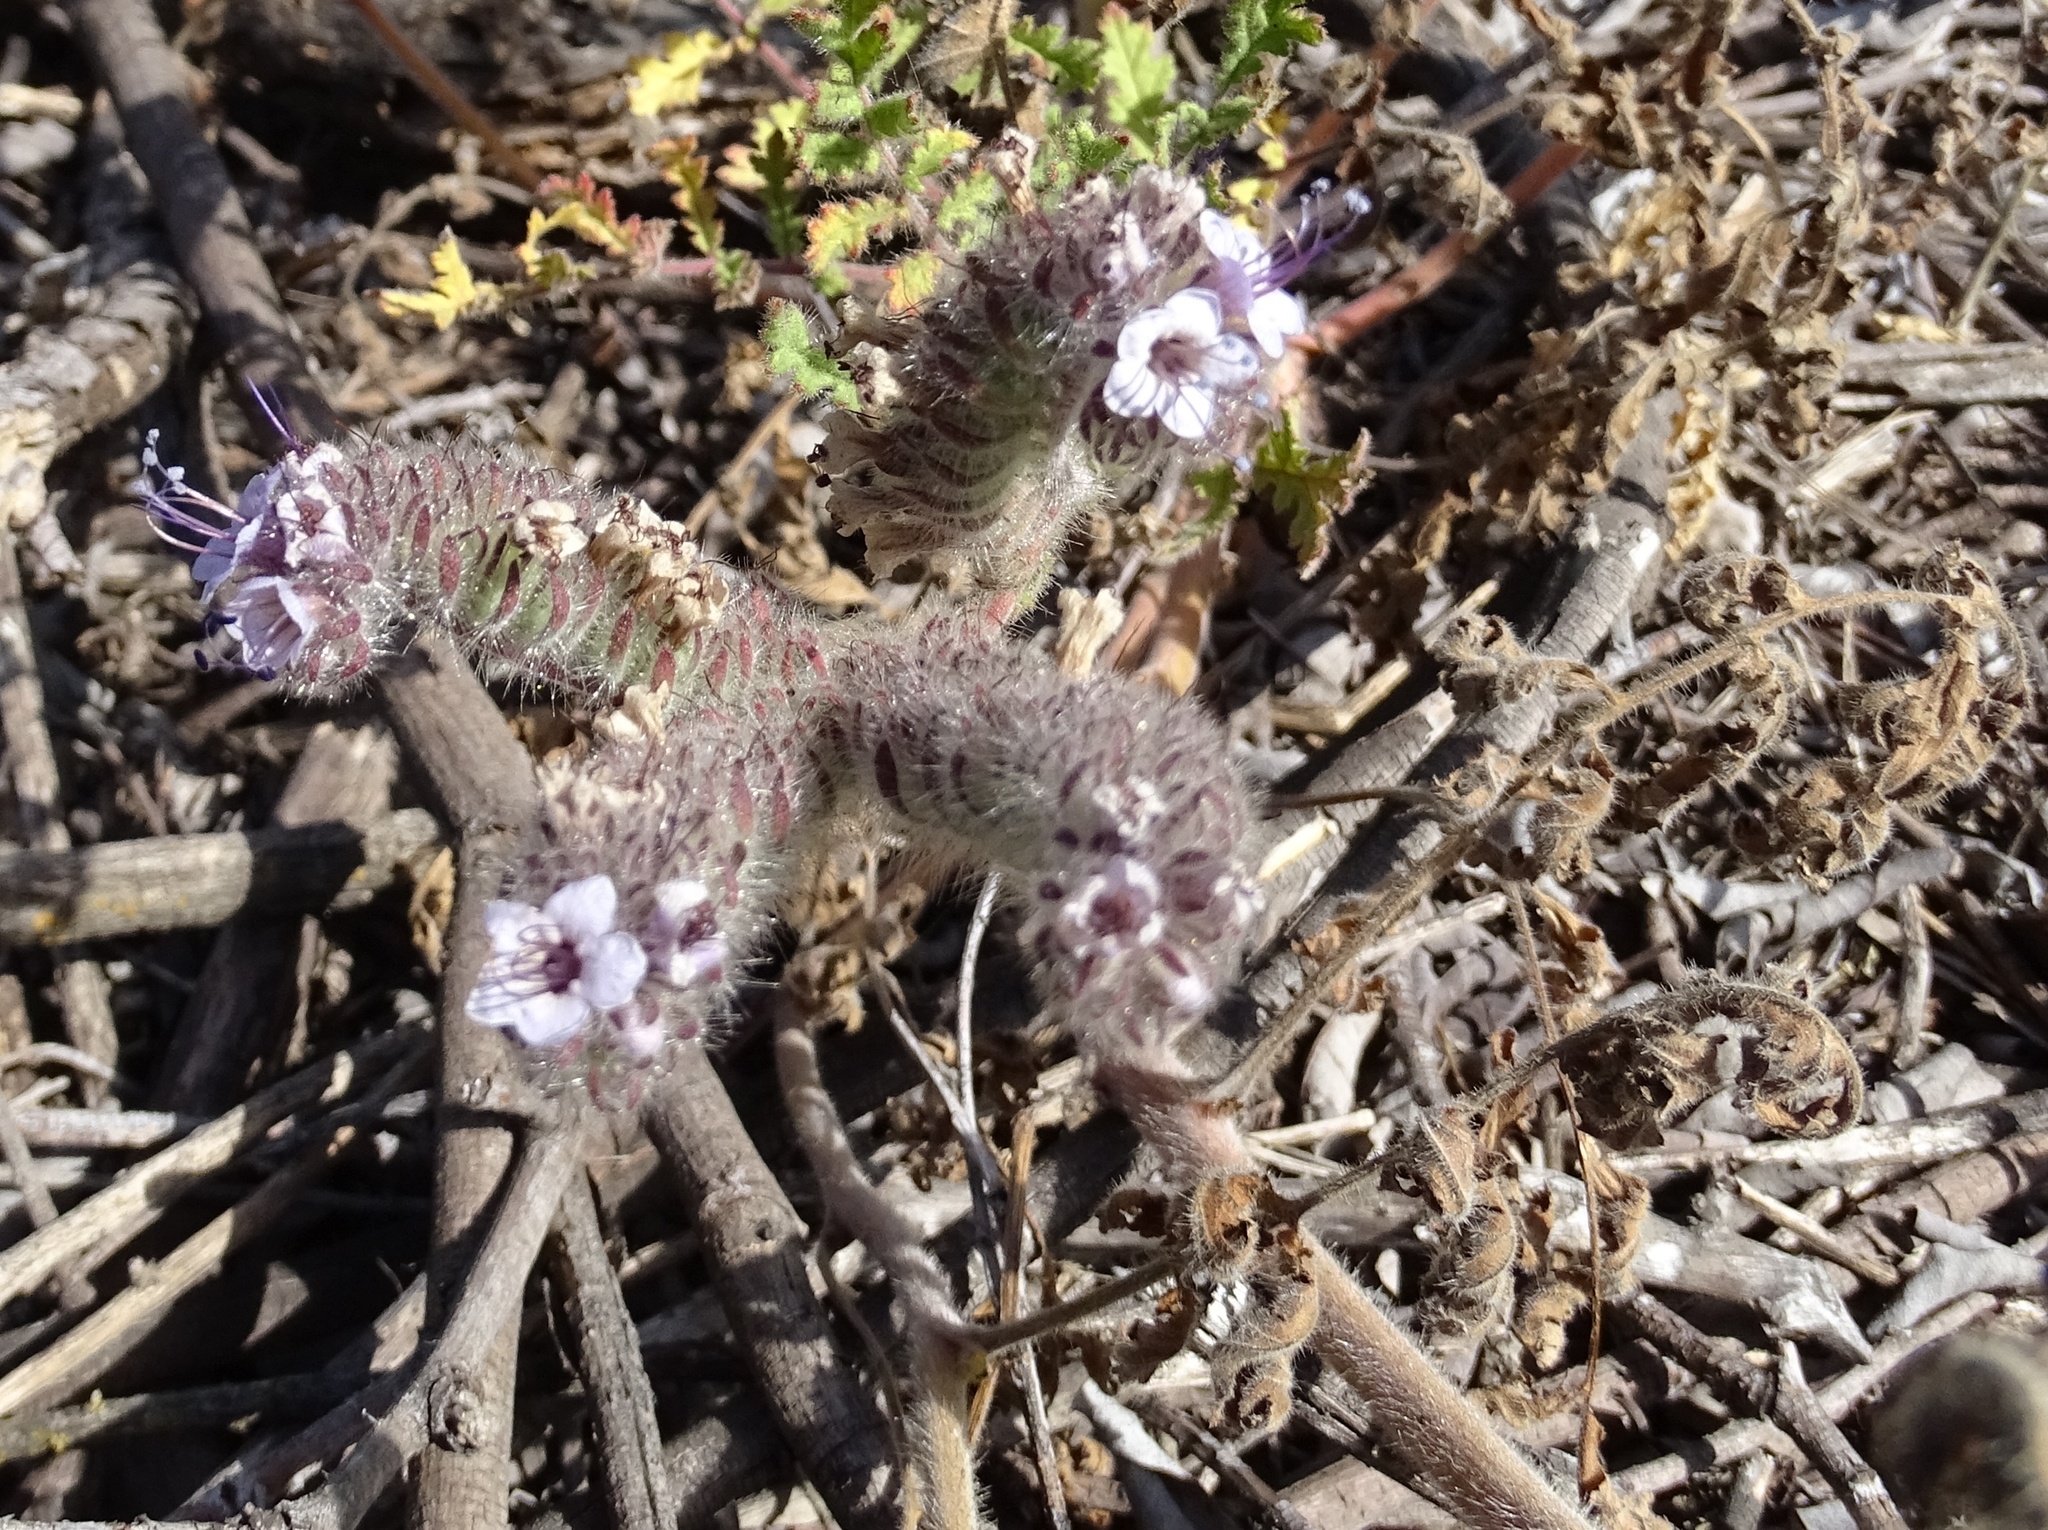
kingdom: Plantae
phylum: Tracheophyta
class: Magnoliopsida
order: Boraginales
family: Hydrophyllaceae
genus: Phacelia
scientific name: Phacelia cicutaria
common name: Caterpillar phacelia
